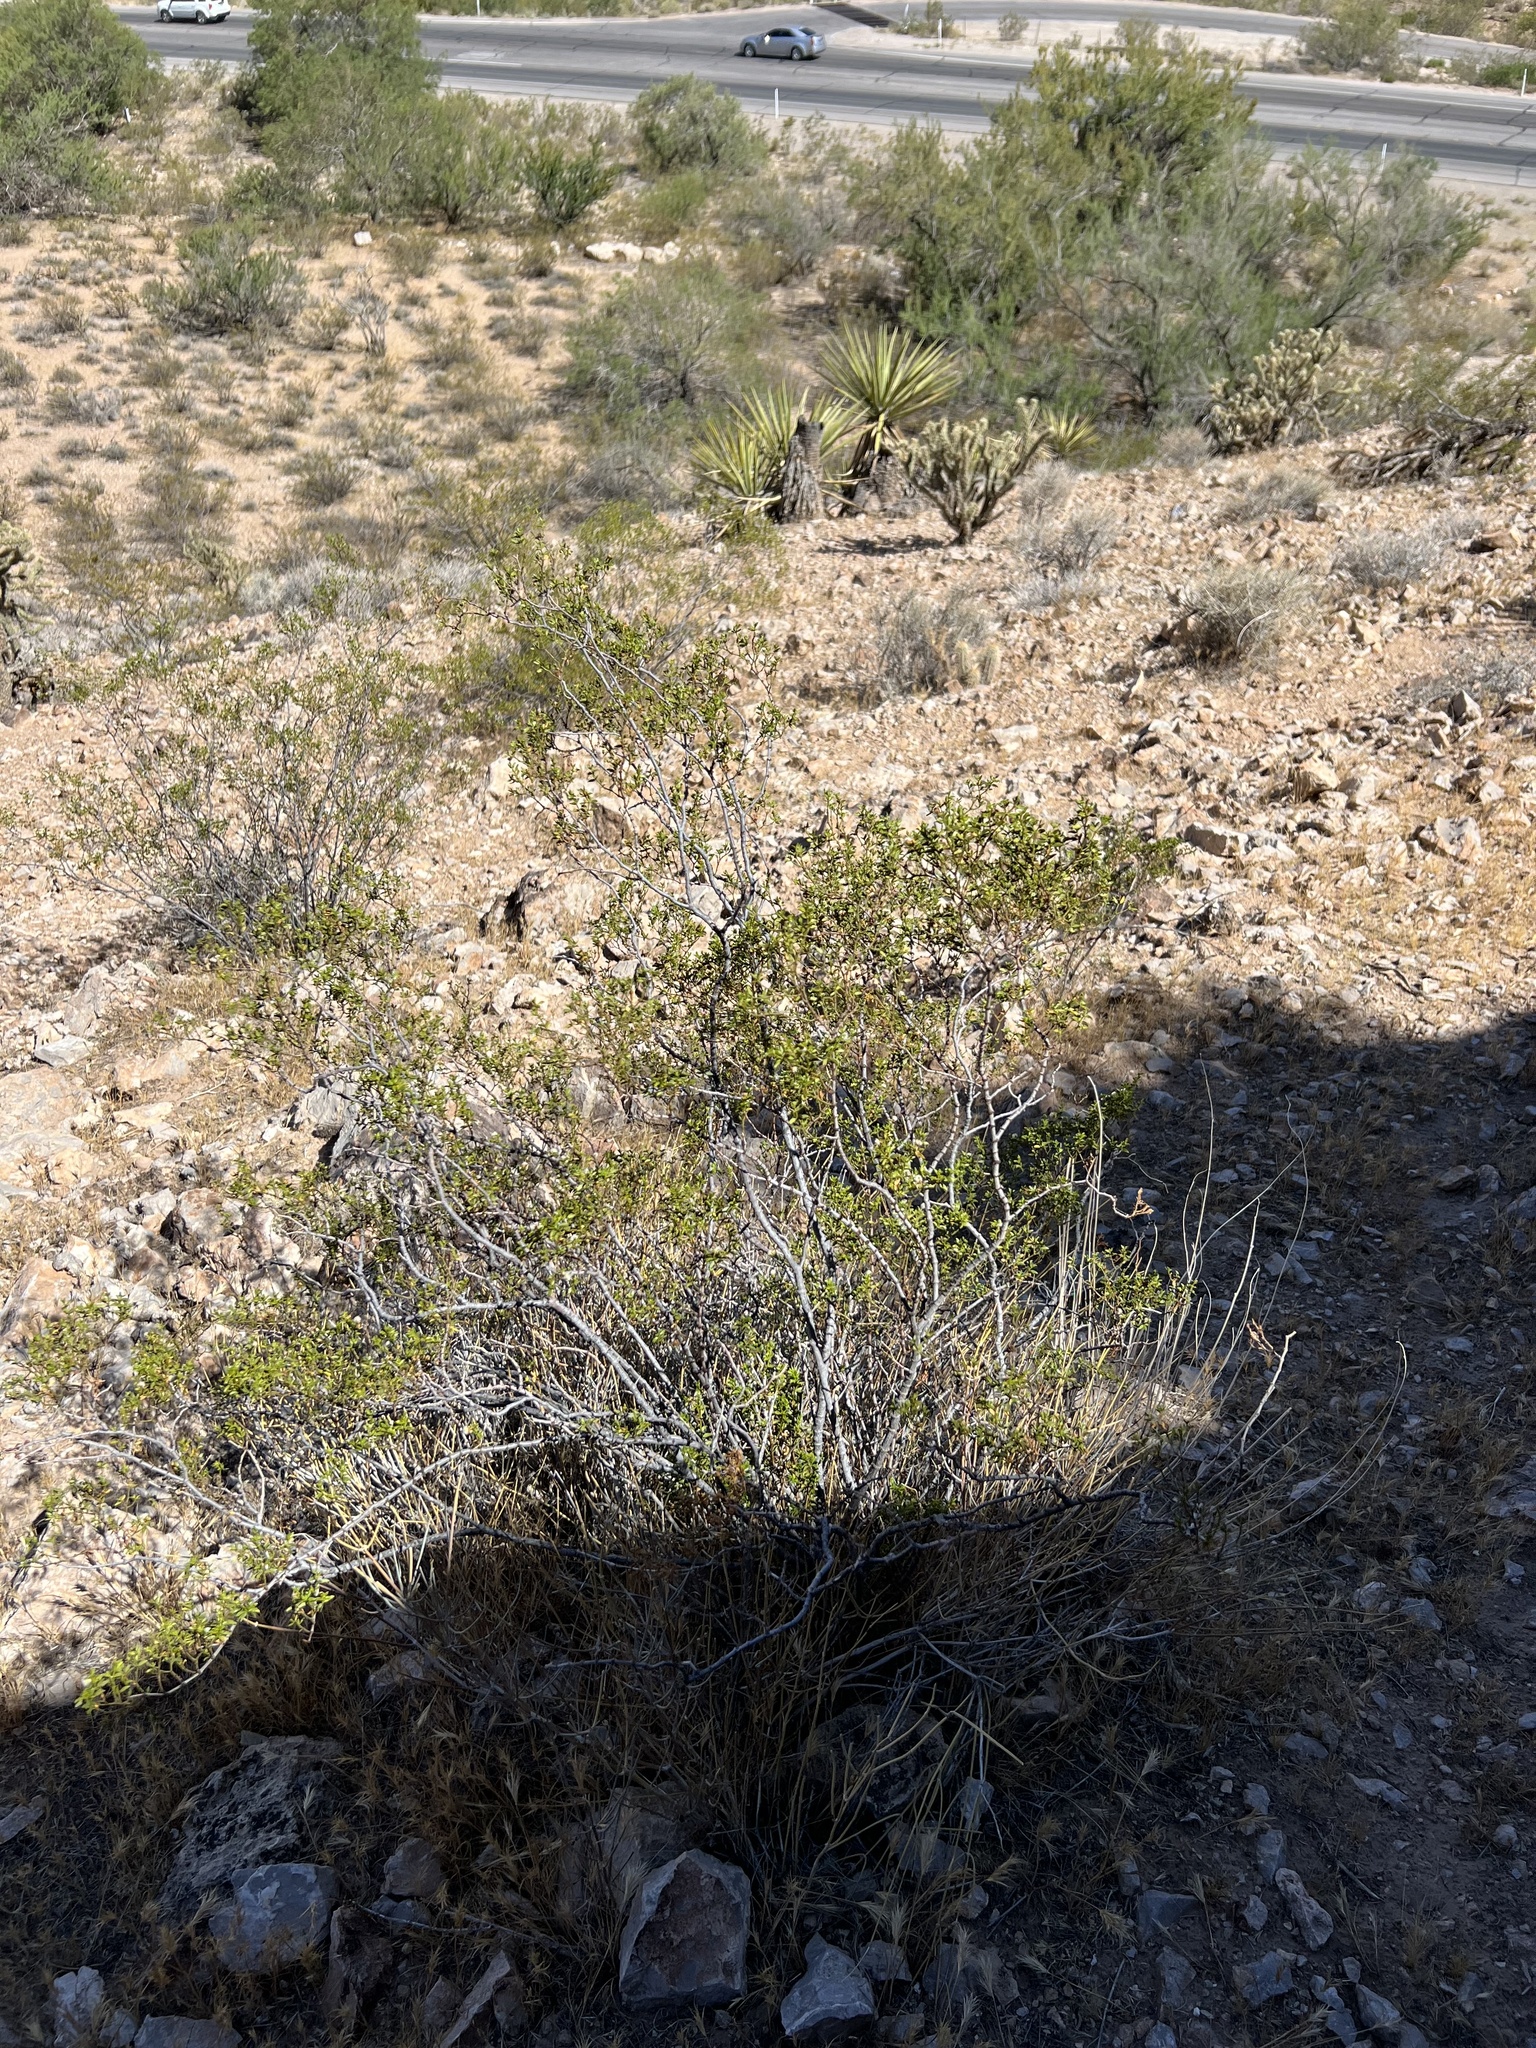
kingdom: Plantae
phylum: Tracheophyta
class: Magnoliopsida
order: Zygophyllales
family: Zygophyllaceae
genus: Larrea
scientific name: Larrea tridentata
